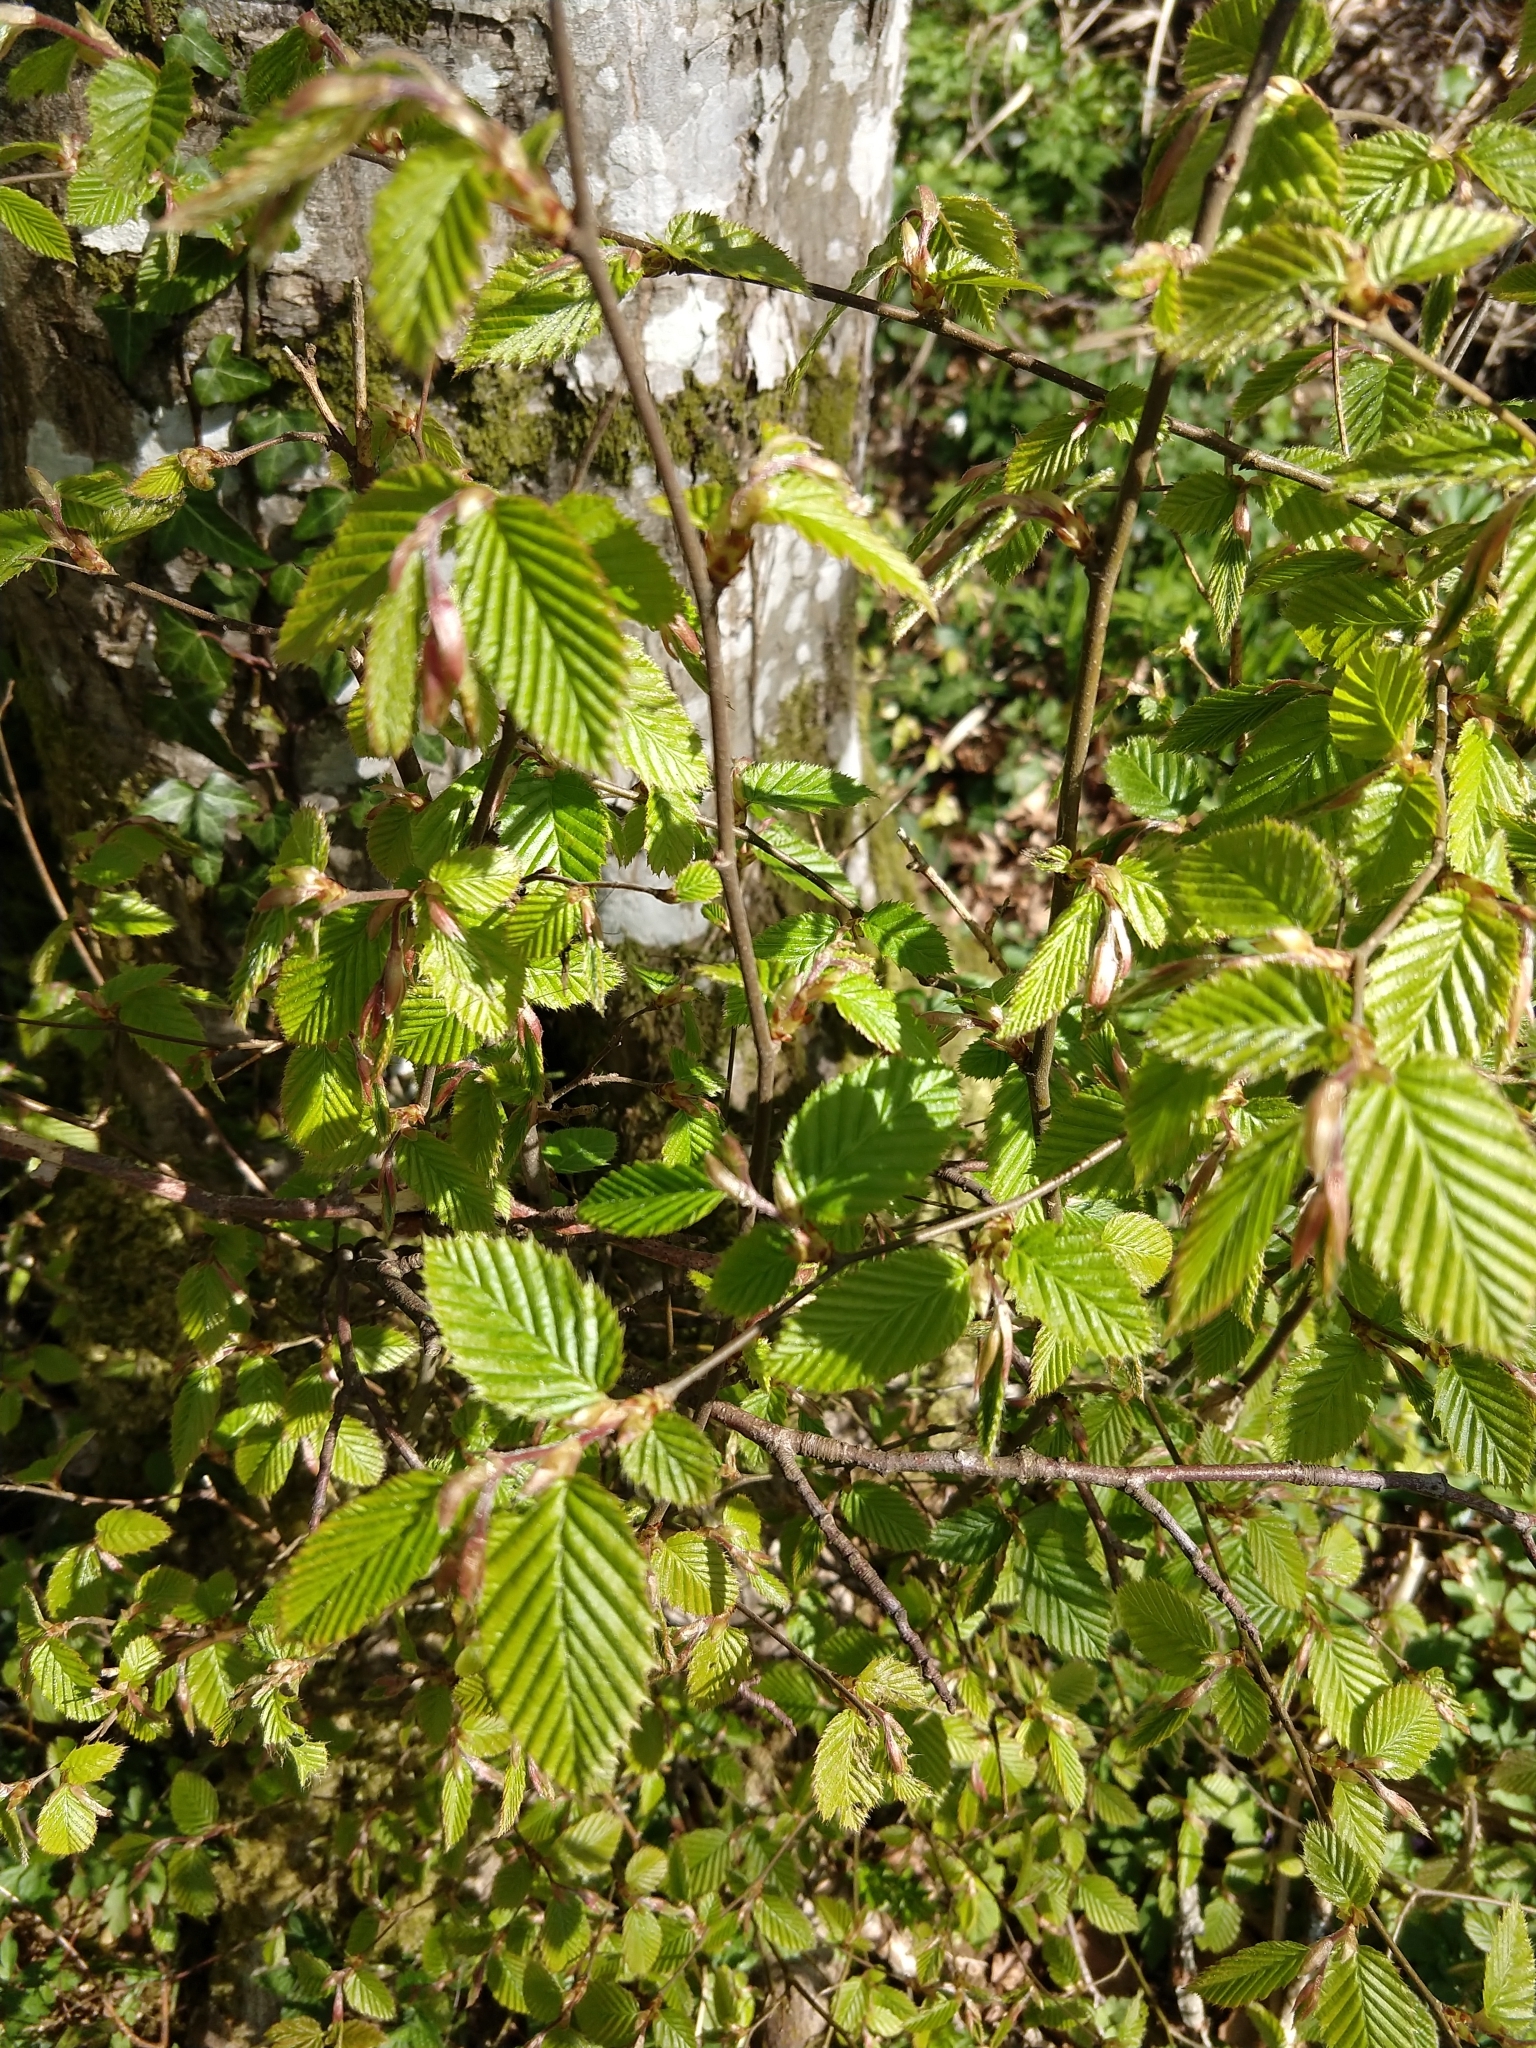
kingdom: Plantae
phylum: Tracheophyta
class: Magnoliopsida
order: Fagales
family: Betulaceae
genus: Carpinus
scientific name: Carpinus betulus
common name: Hornbeam
